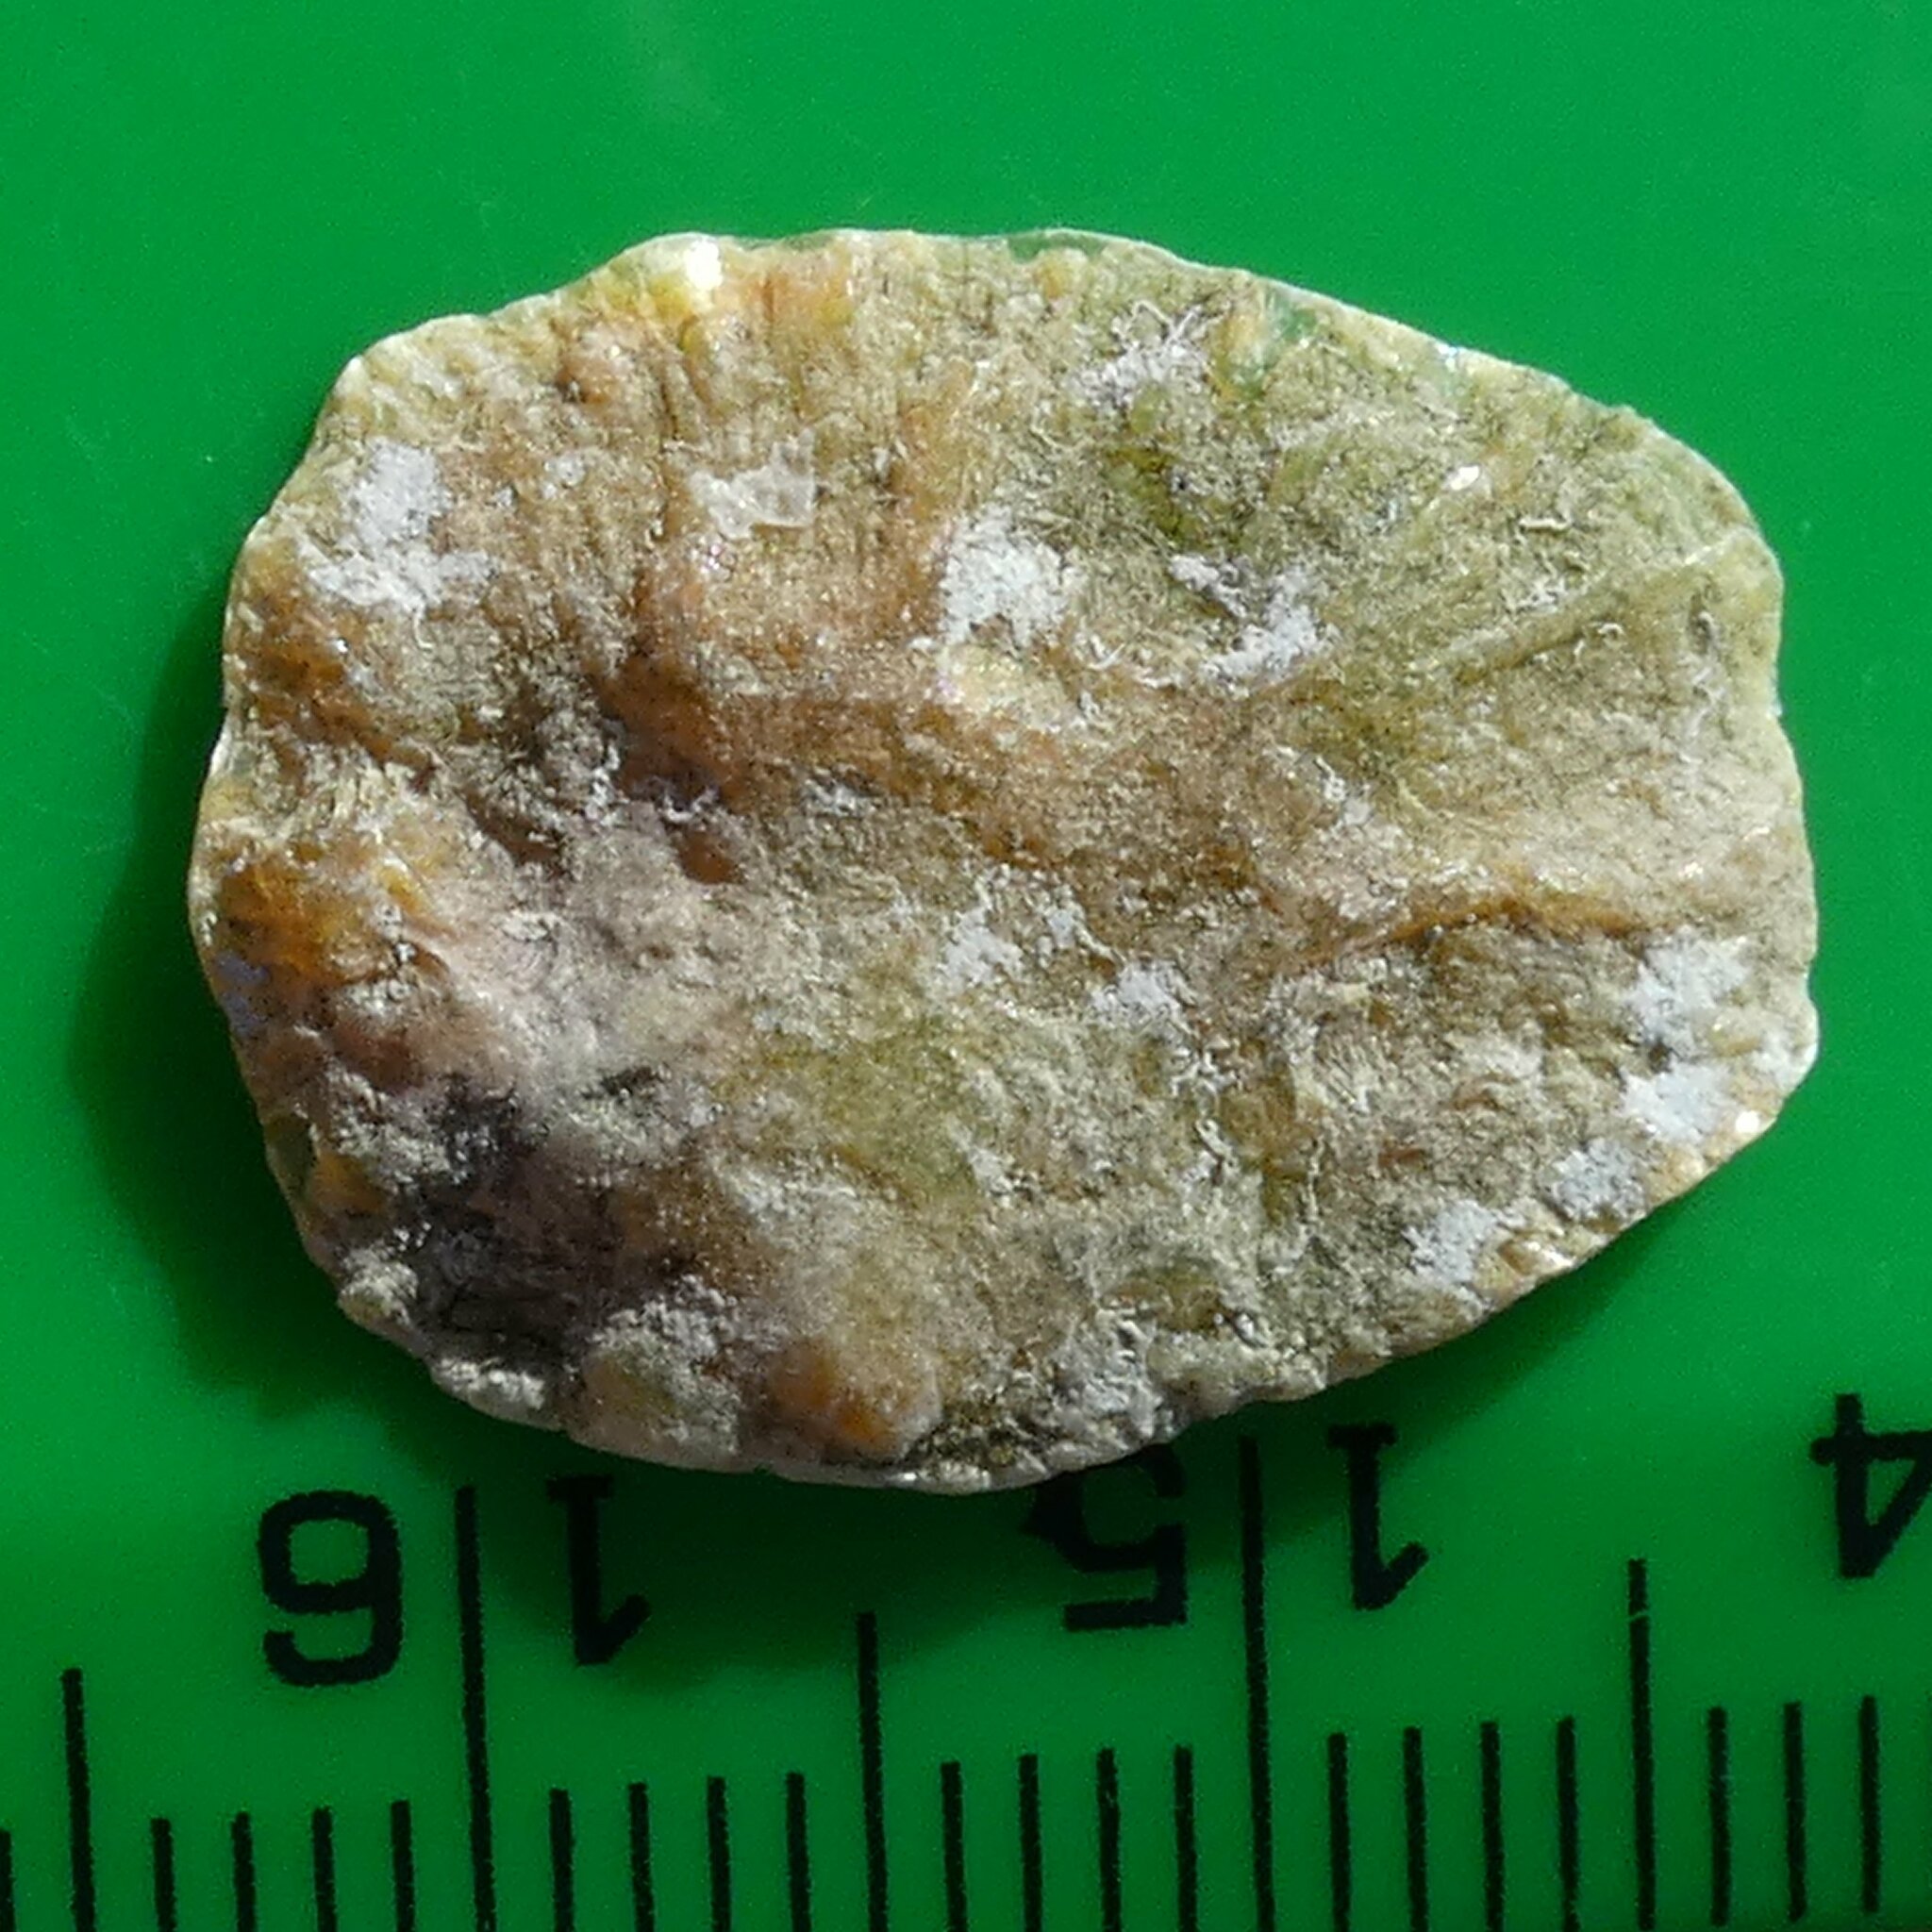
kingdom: Animalia
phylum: Mollusca
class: Bivalvia
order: Pectinida
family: Anomiidae
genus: Anomia
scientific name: Anomia ephippium
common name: Saddle oyster
